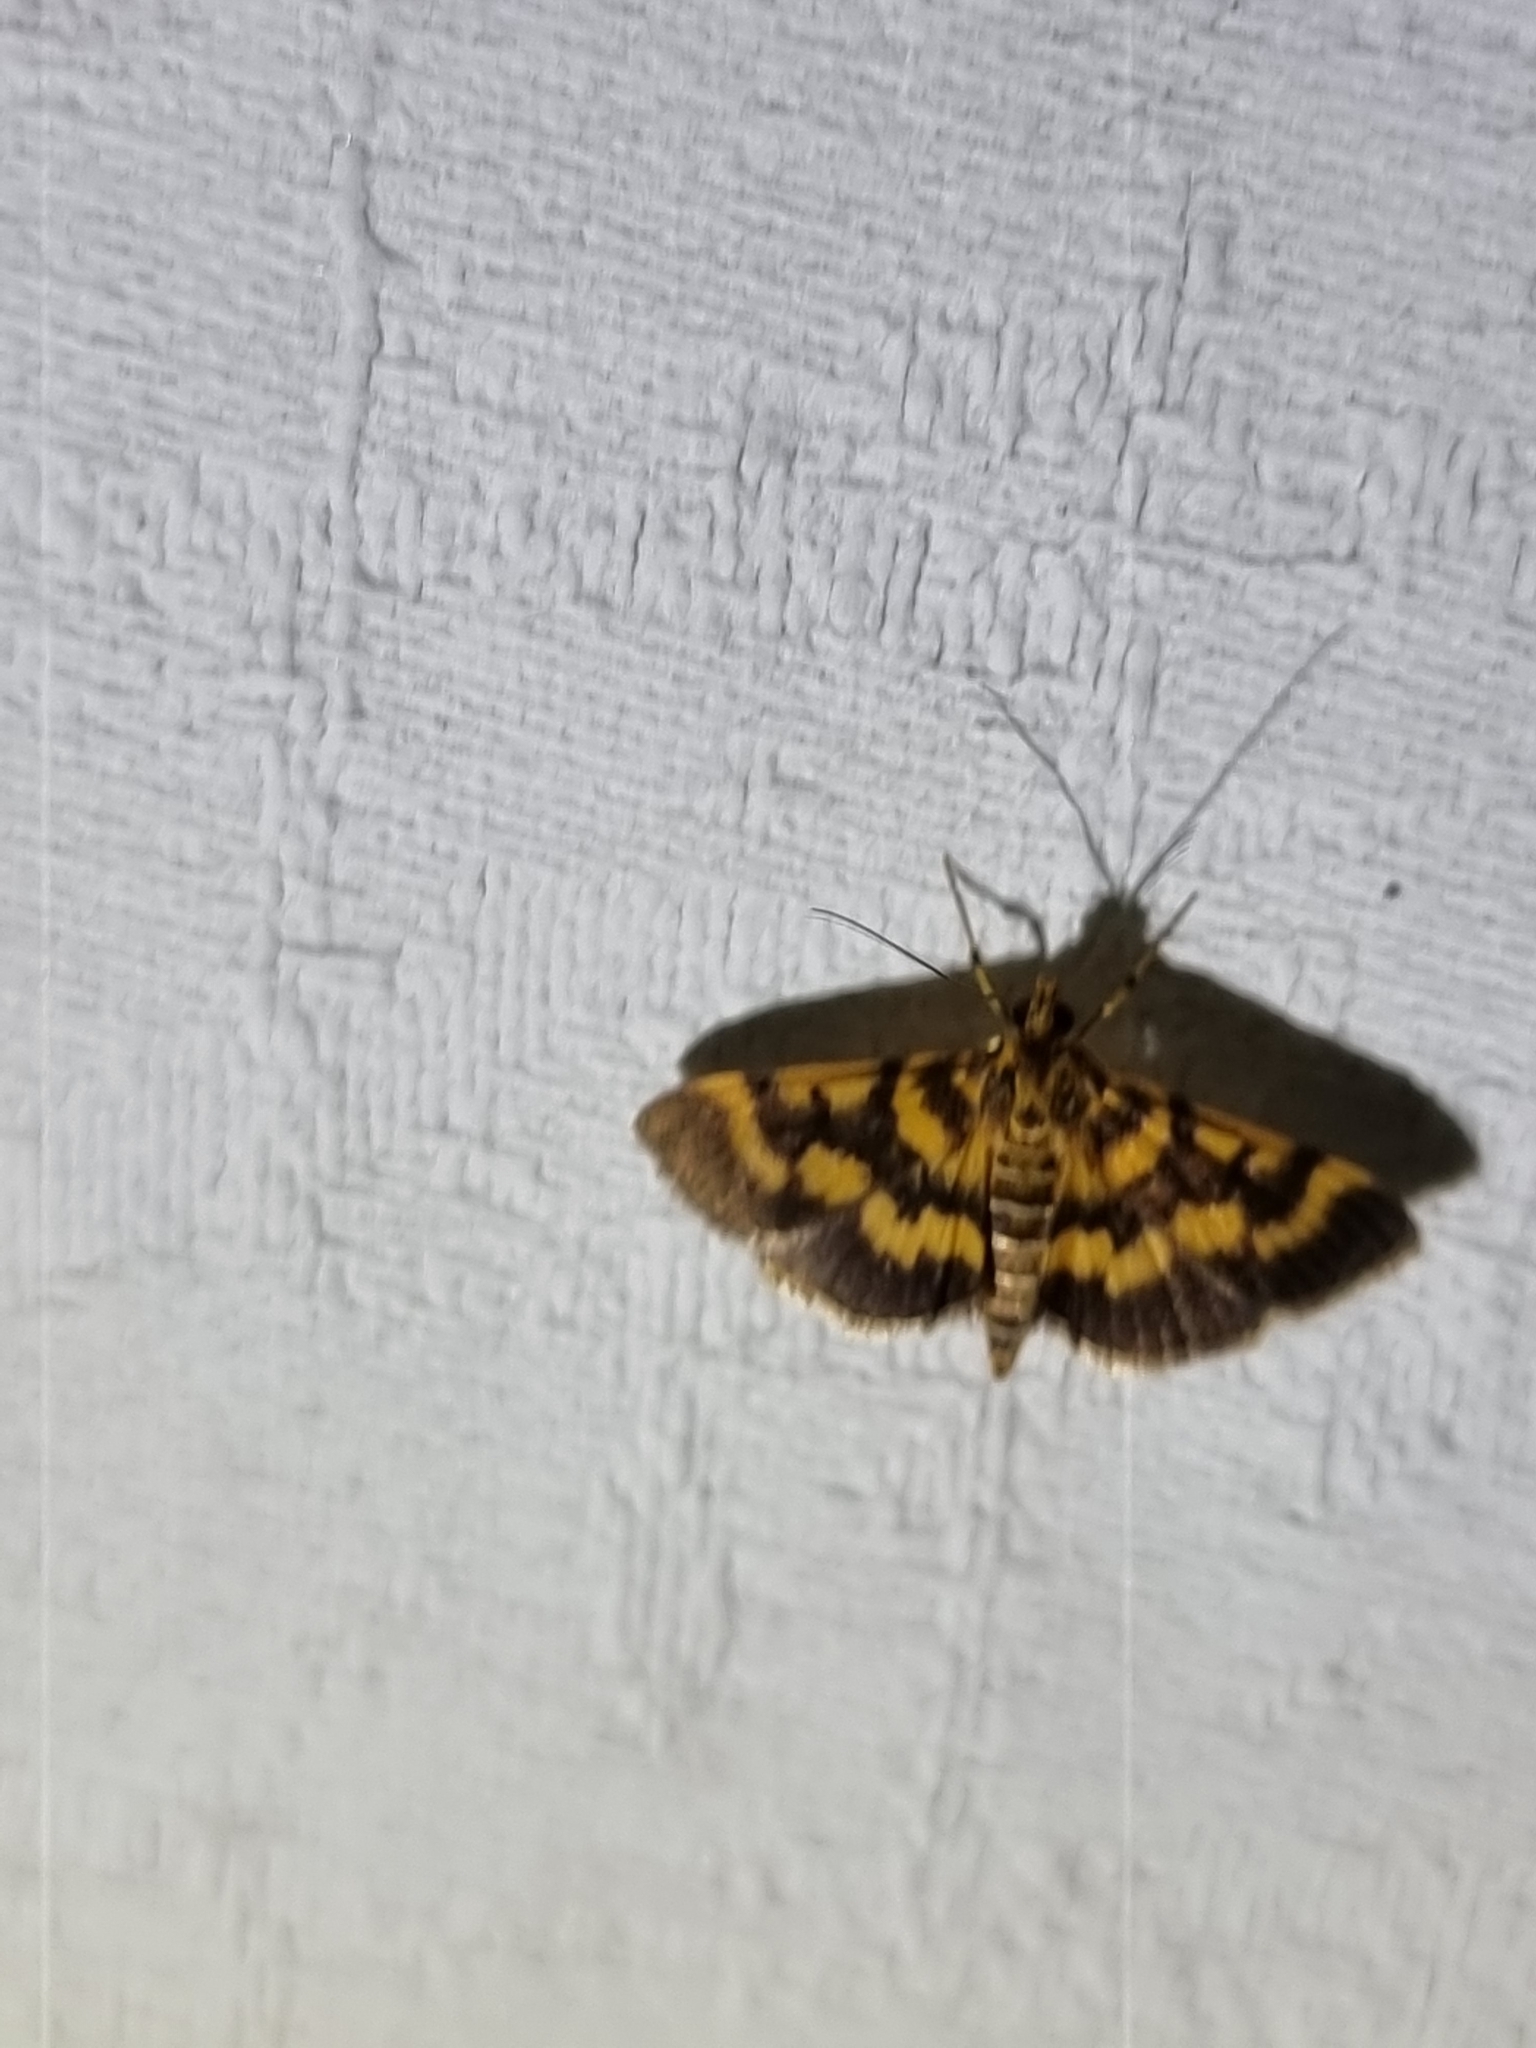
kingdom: Animalia
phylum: Arthropoda
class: Insecta
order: Lepidoptera
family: Crambidae
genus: Omiodes
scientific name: Omiodes diemenalis
